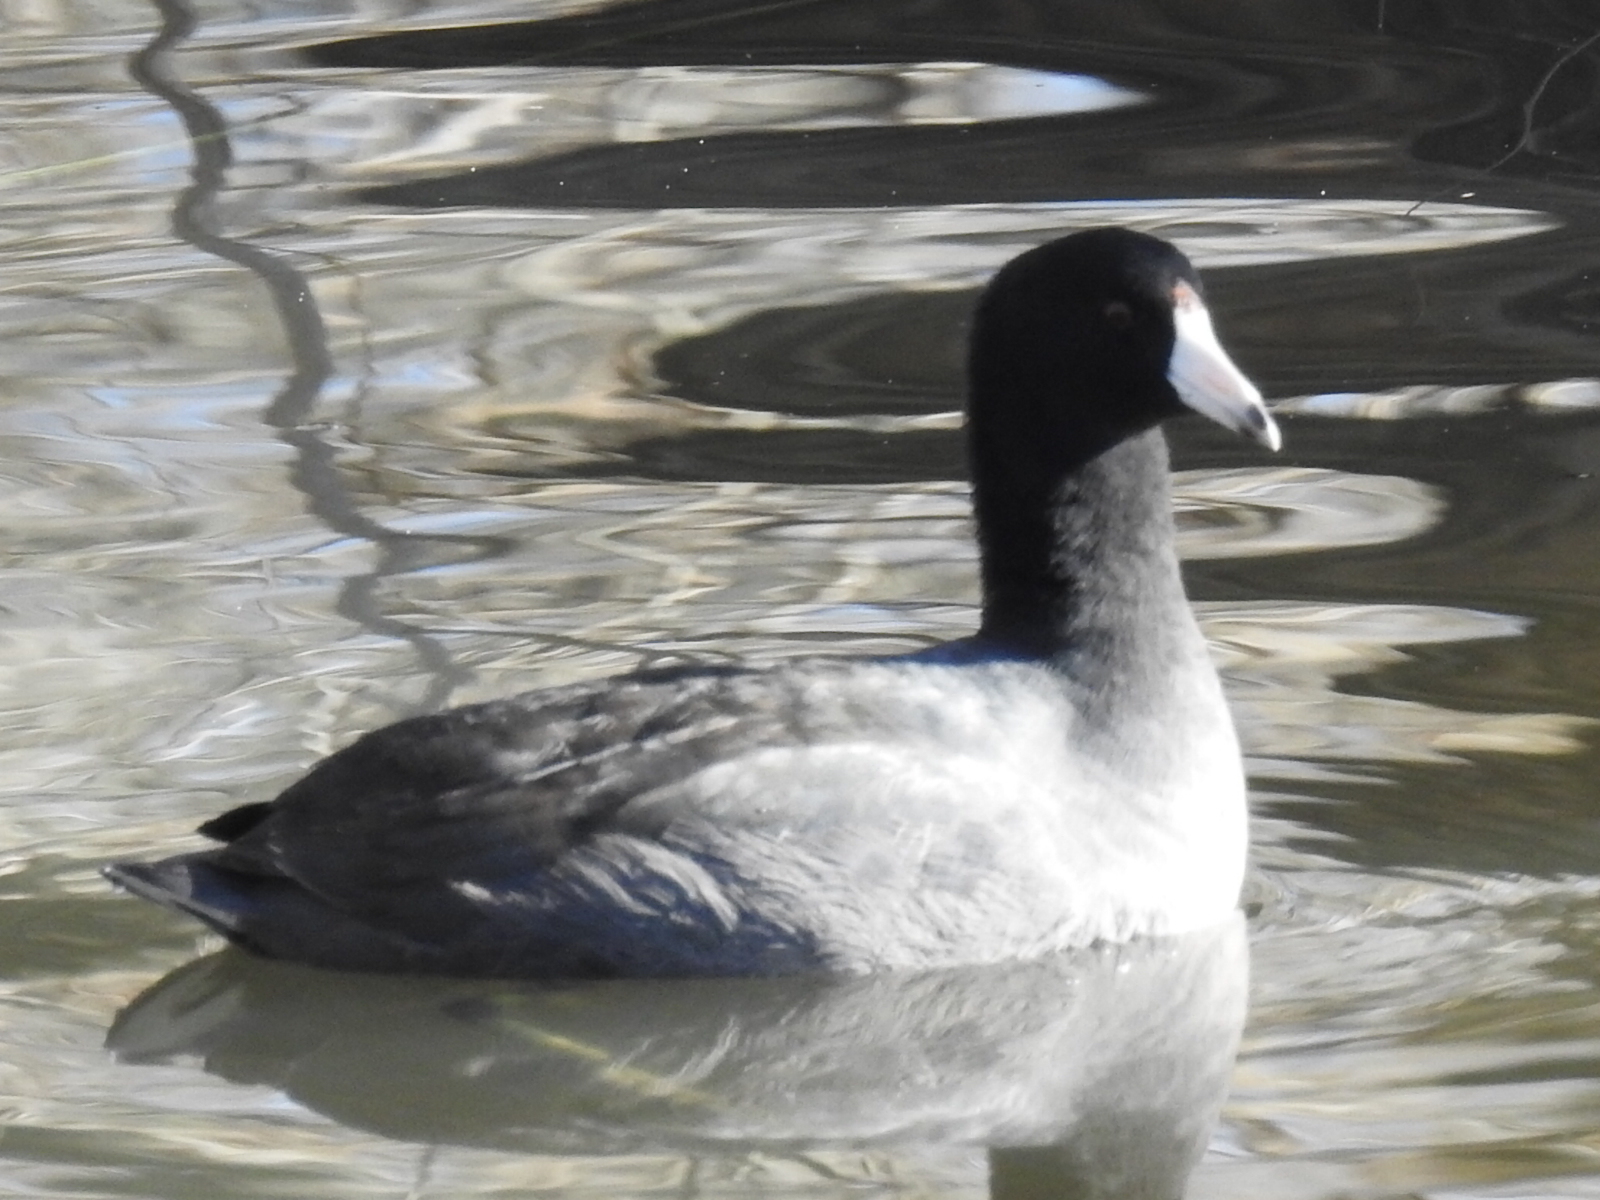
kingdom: Animalia
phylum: Chordata
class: Aves
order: Gruiformes
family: Rallidae
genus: Fulica
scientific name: Fulica americana
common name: American coot
